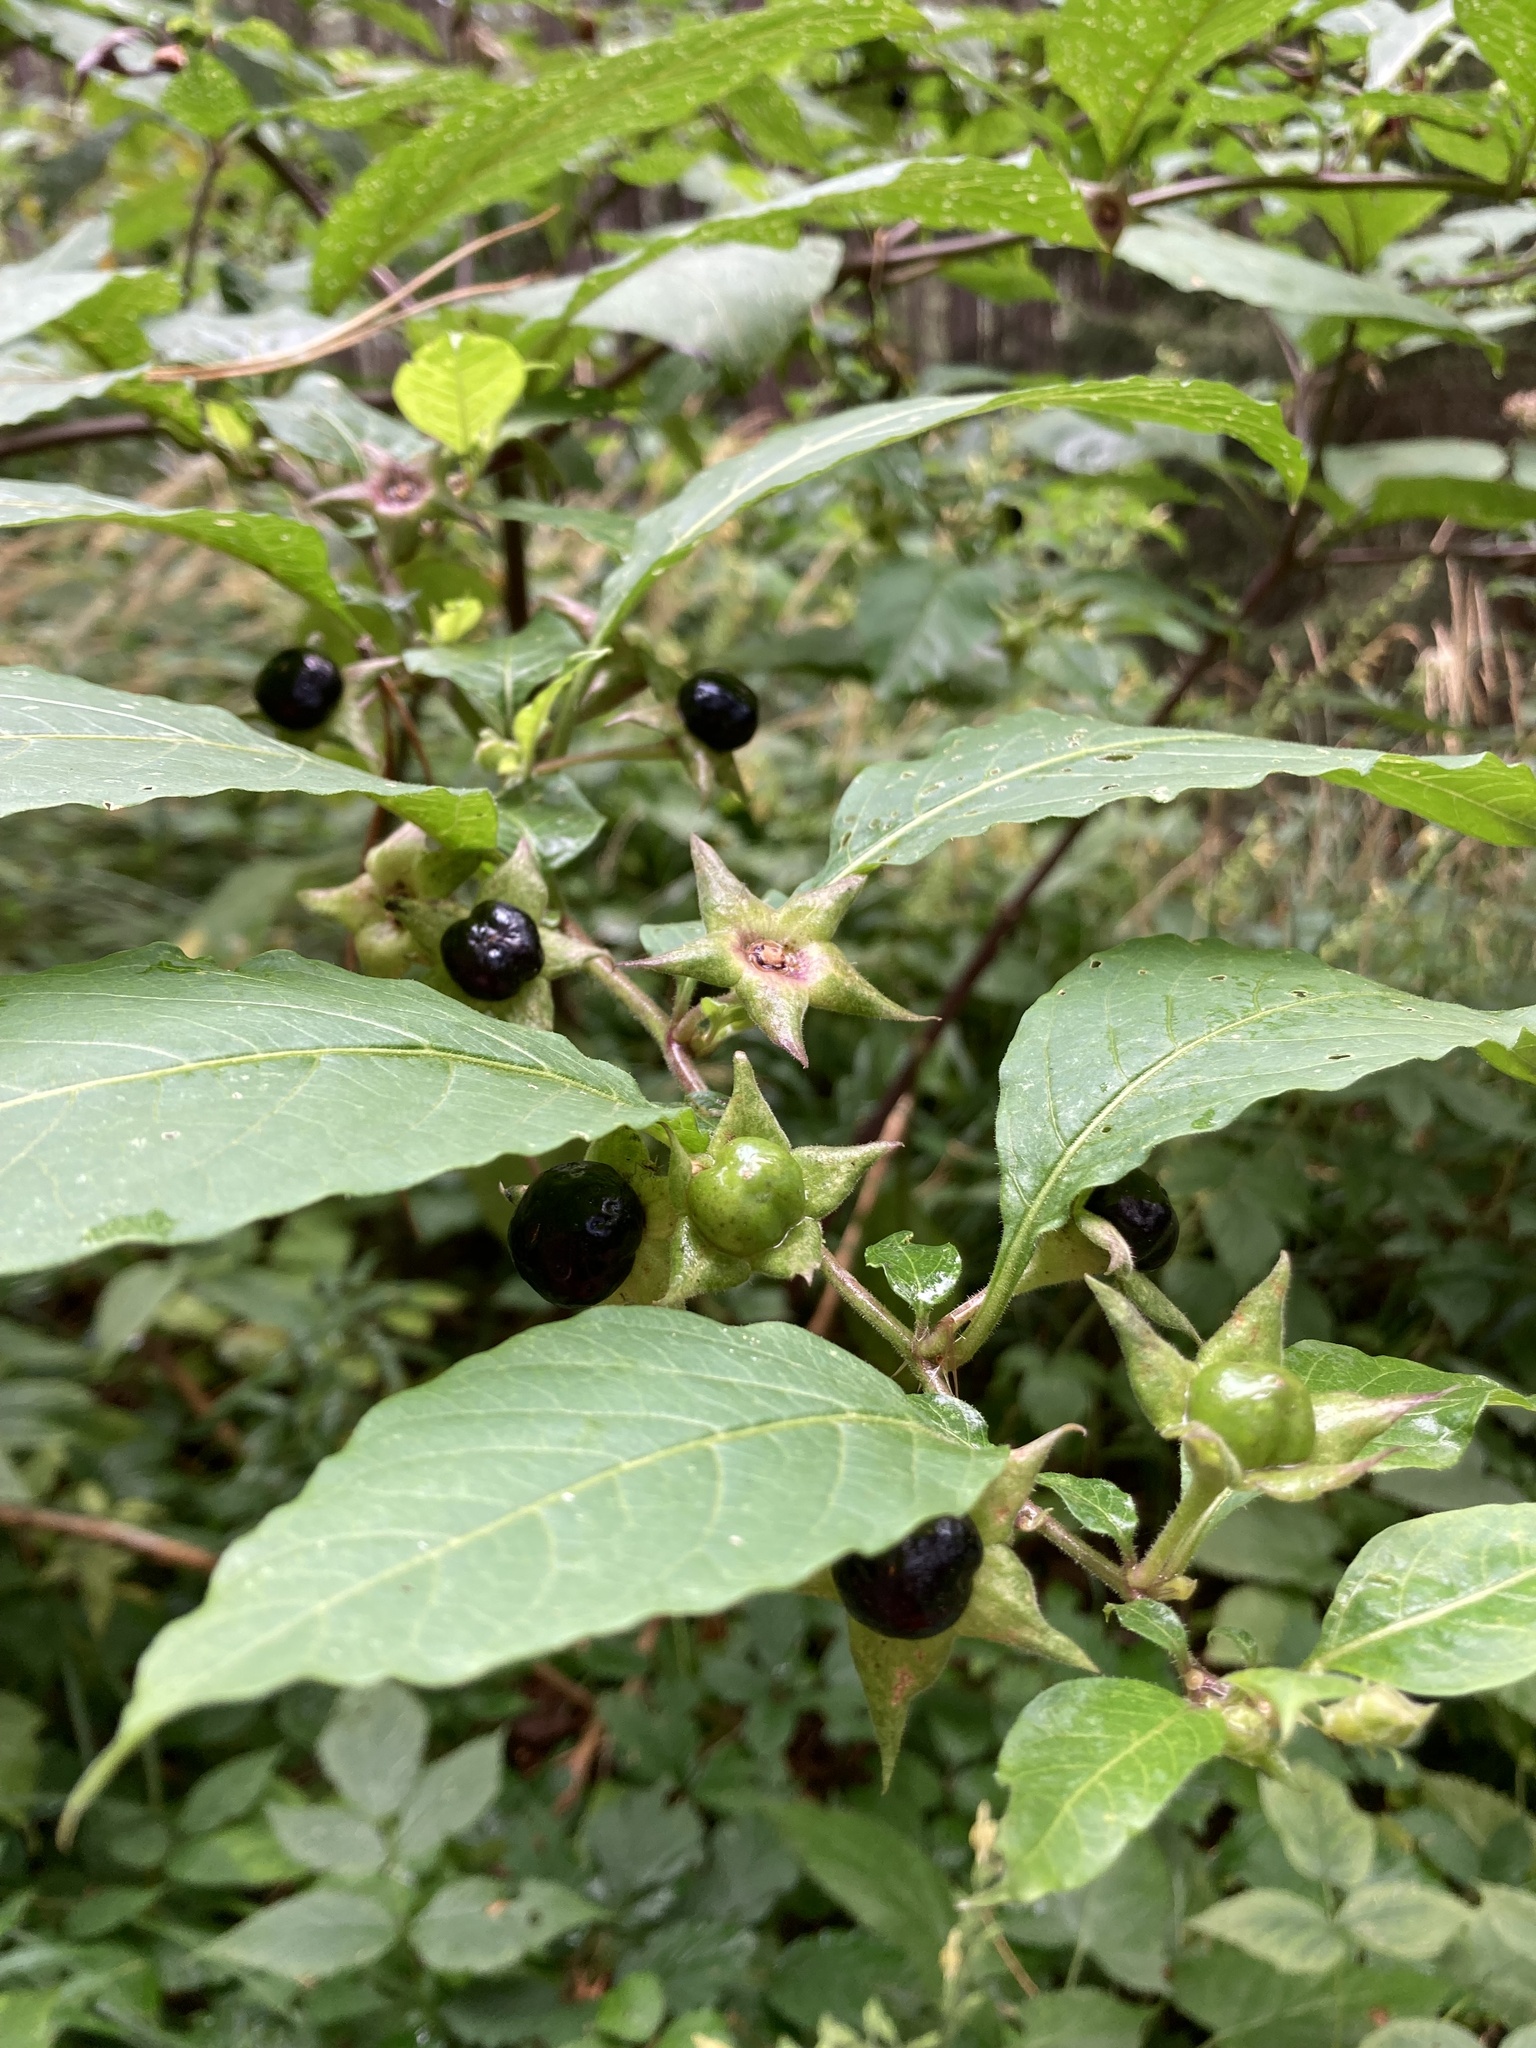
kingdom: Plantae
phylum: Tracheophyta
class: Magnoliopsida
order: Solanales
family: Solanaceae
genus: Atropa
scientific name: Atropa belladonna
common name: Deadly nightshade
